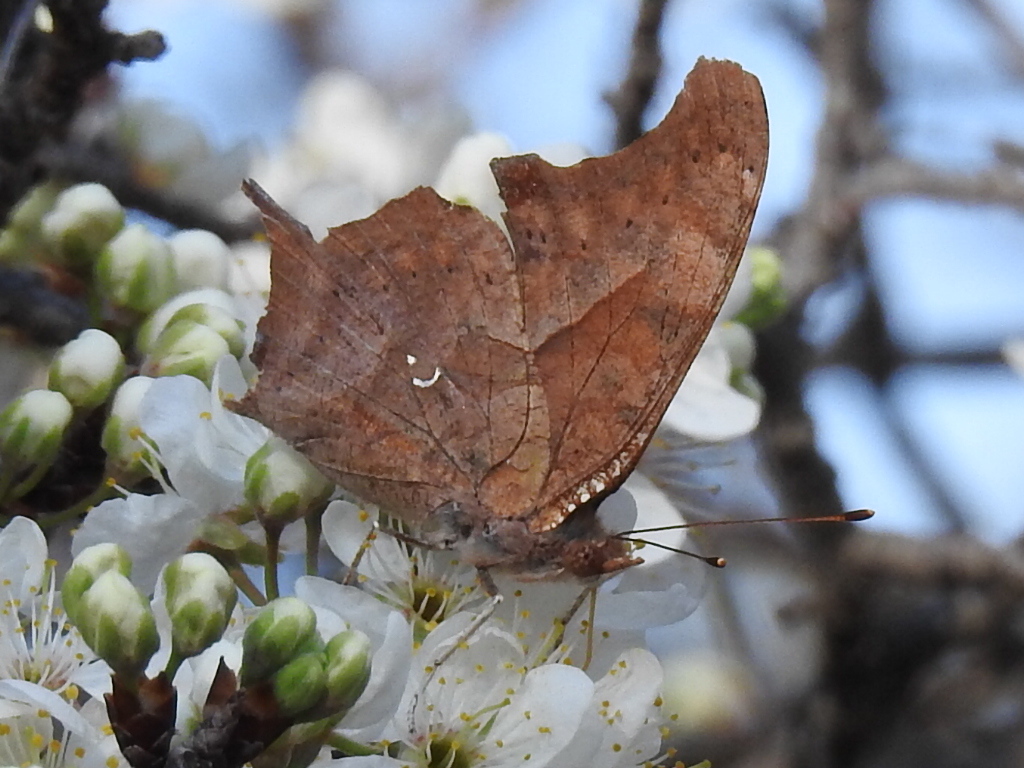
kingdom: Animalia
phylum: Arthropoda
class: Insecta
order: Lepidoptera
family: Nymphalidae
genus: Polygonia
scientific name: Polygonia interrogationis
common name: Question mark
